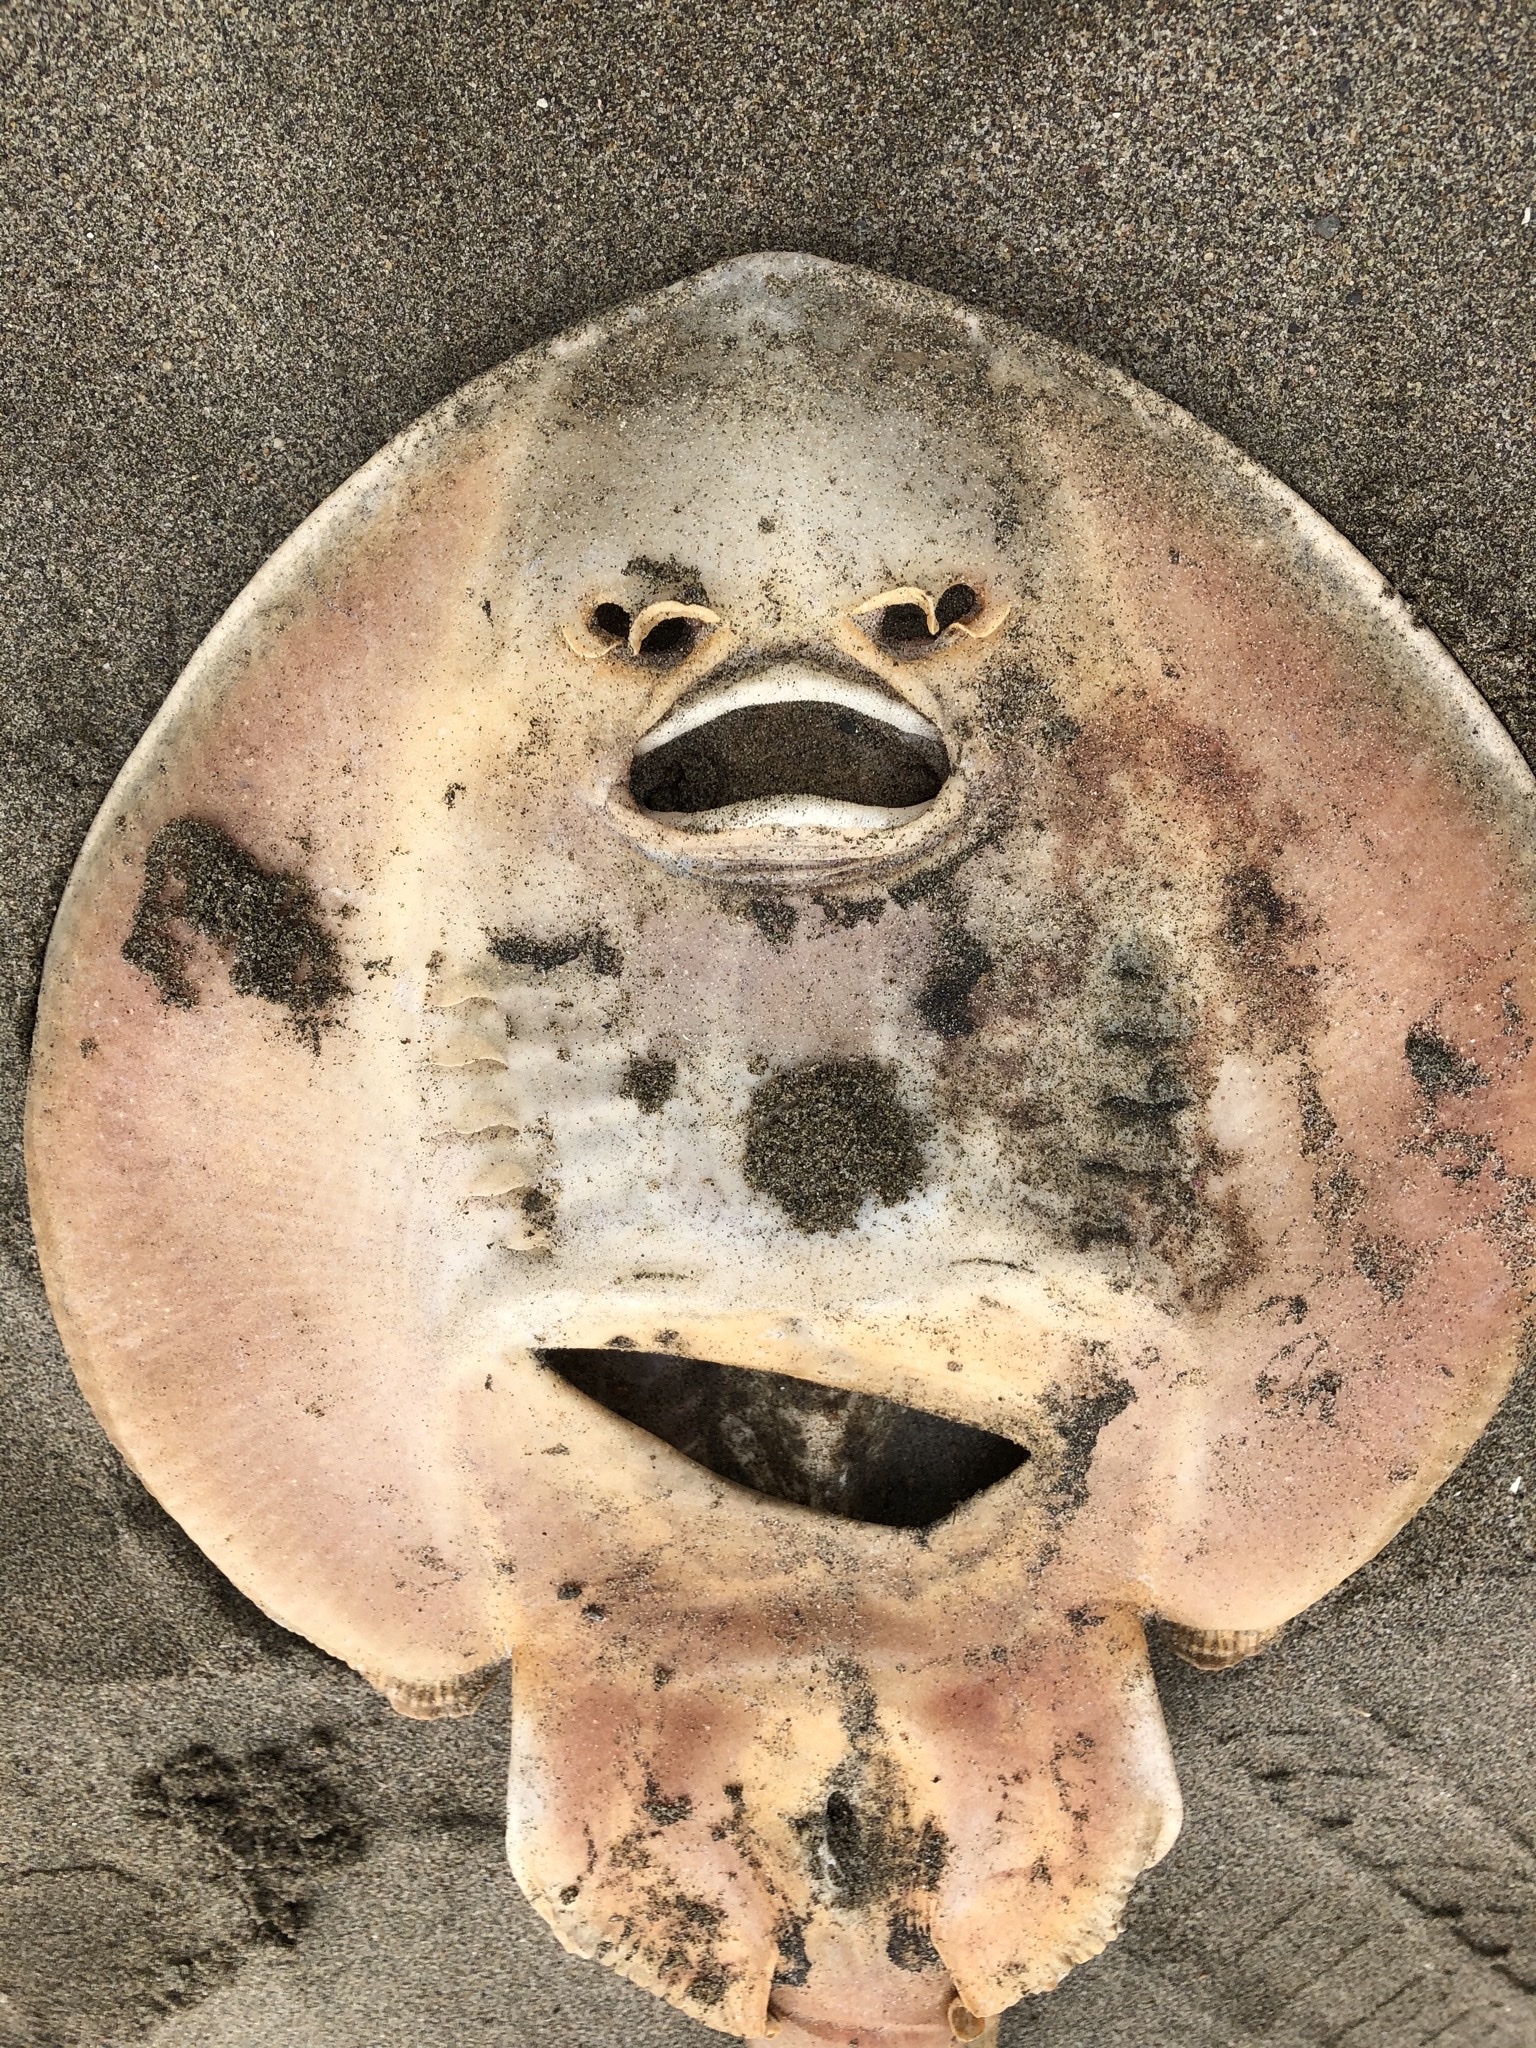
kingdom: Animalia
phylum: Chordata
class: Elasmobranchii
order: Rhinopristiformes
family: Rhinobatidae
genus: Platyrhinoidis
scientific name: Platyrhinoidis triseriata
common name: Thornback
